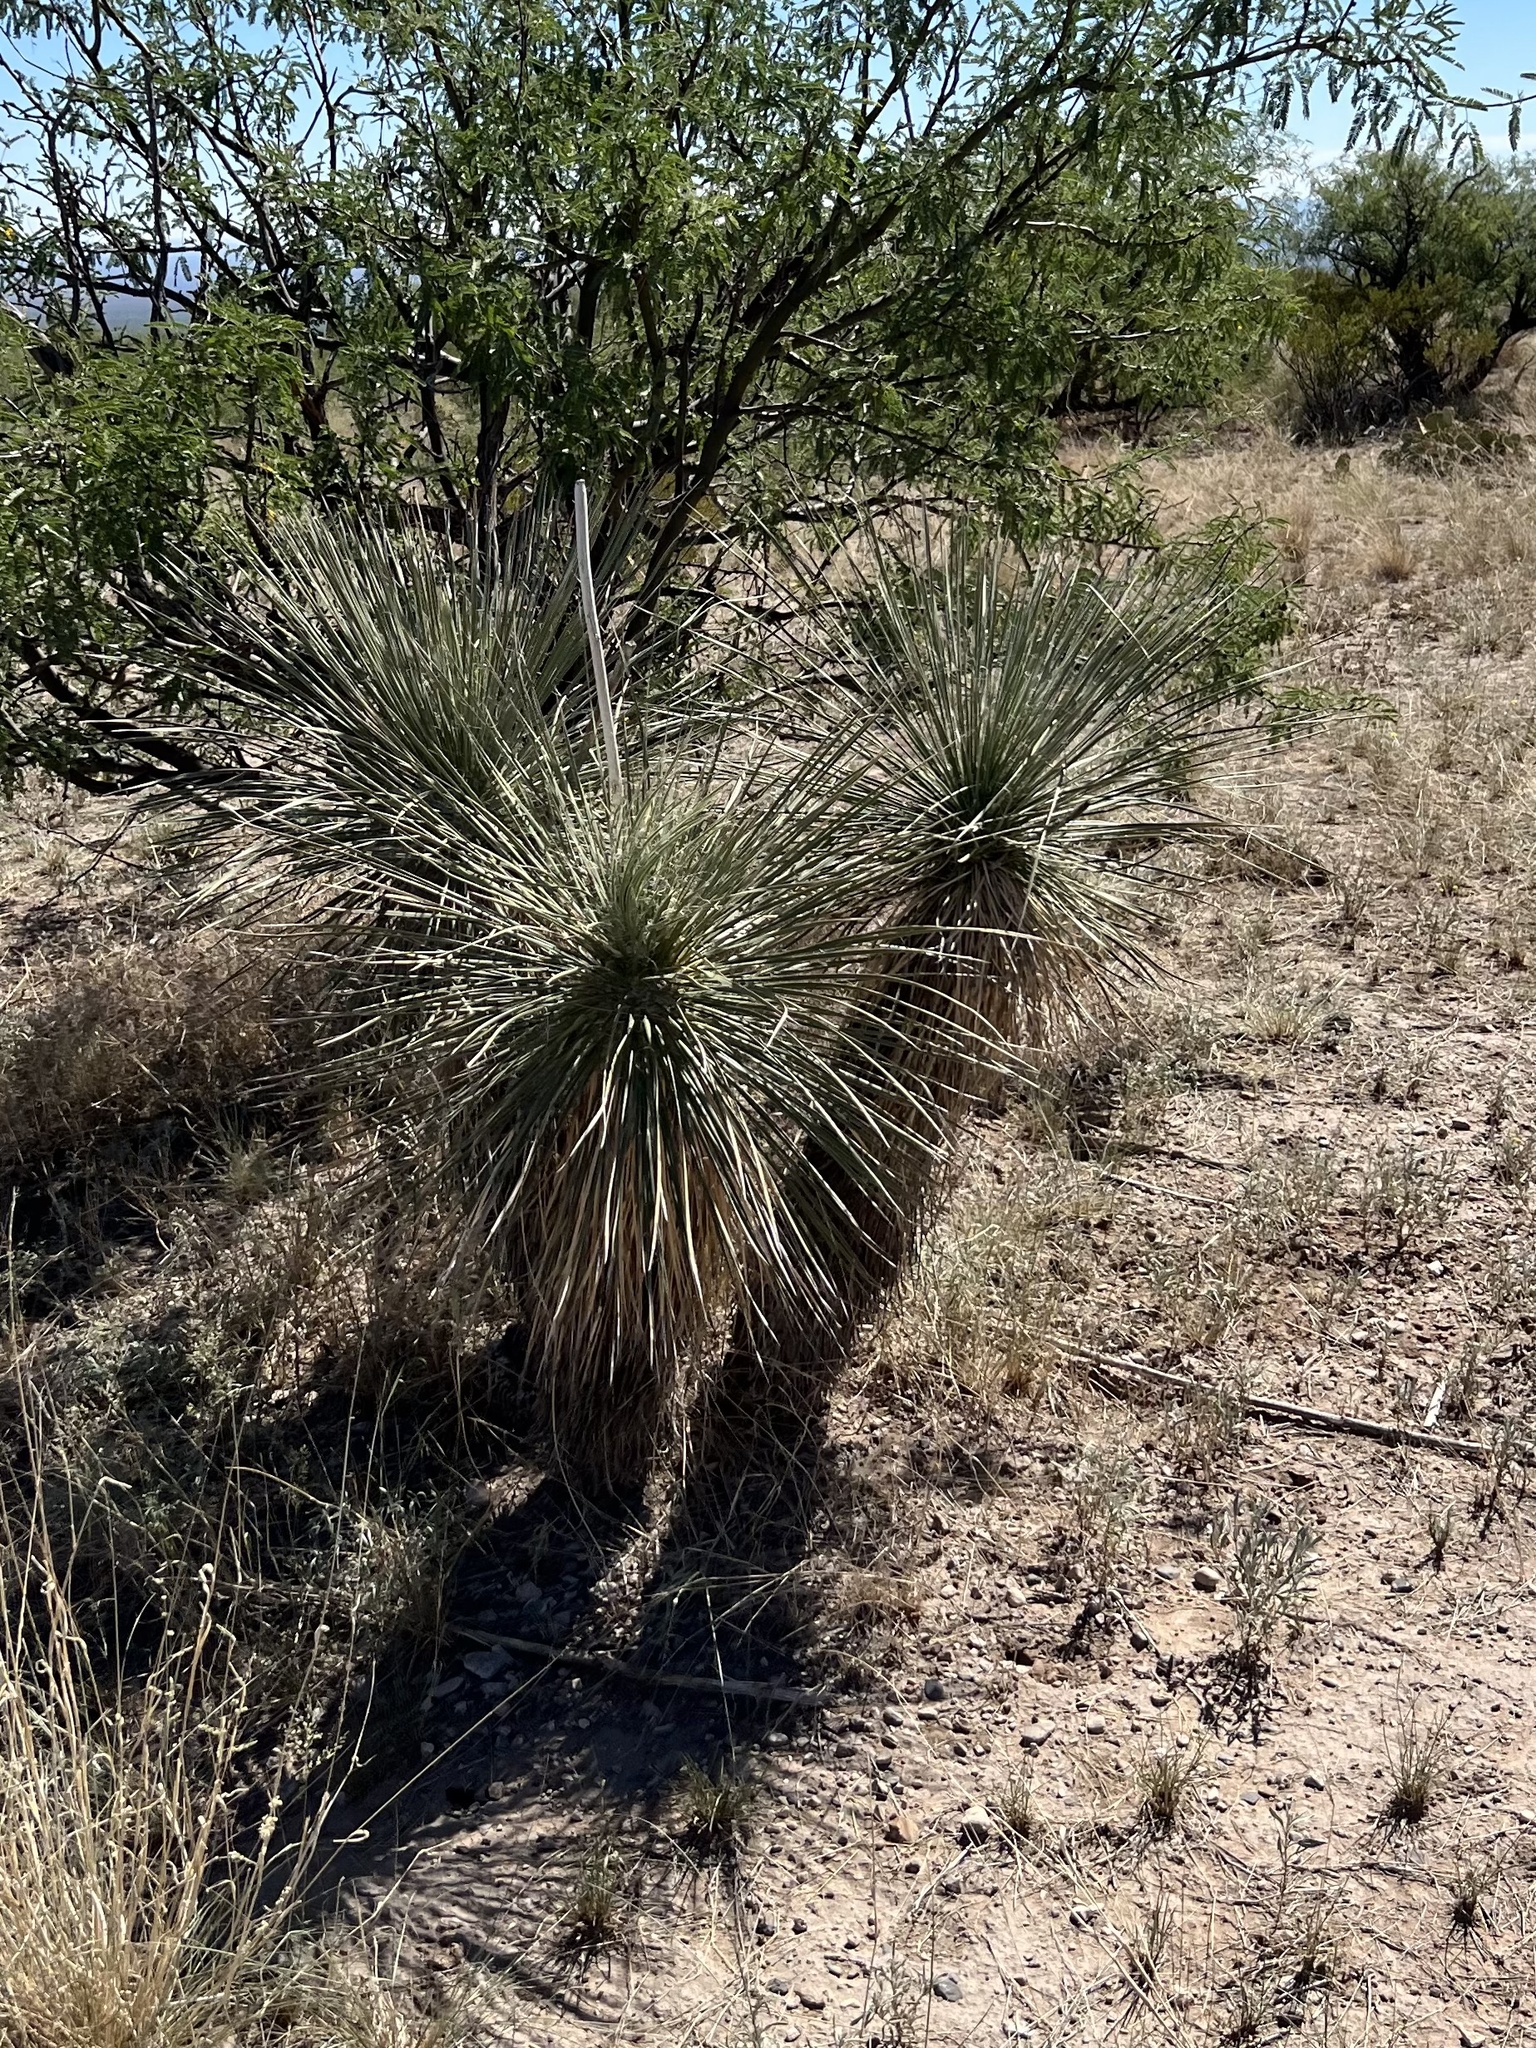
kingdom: Plantae
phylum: Tracheophyta
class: Liliopsida
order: Asparagales
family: Asparagaceae
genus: Yucca
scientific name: Yucca elata
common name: Palmella
